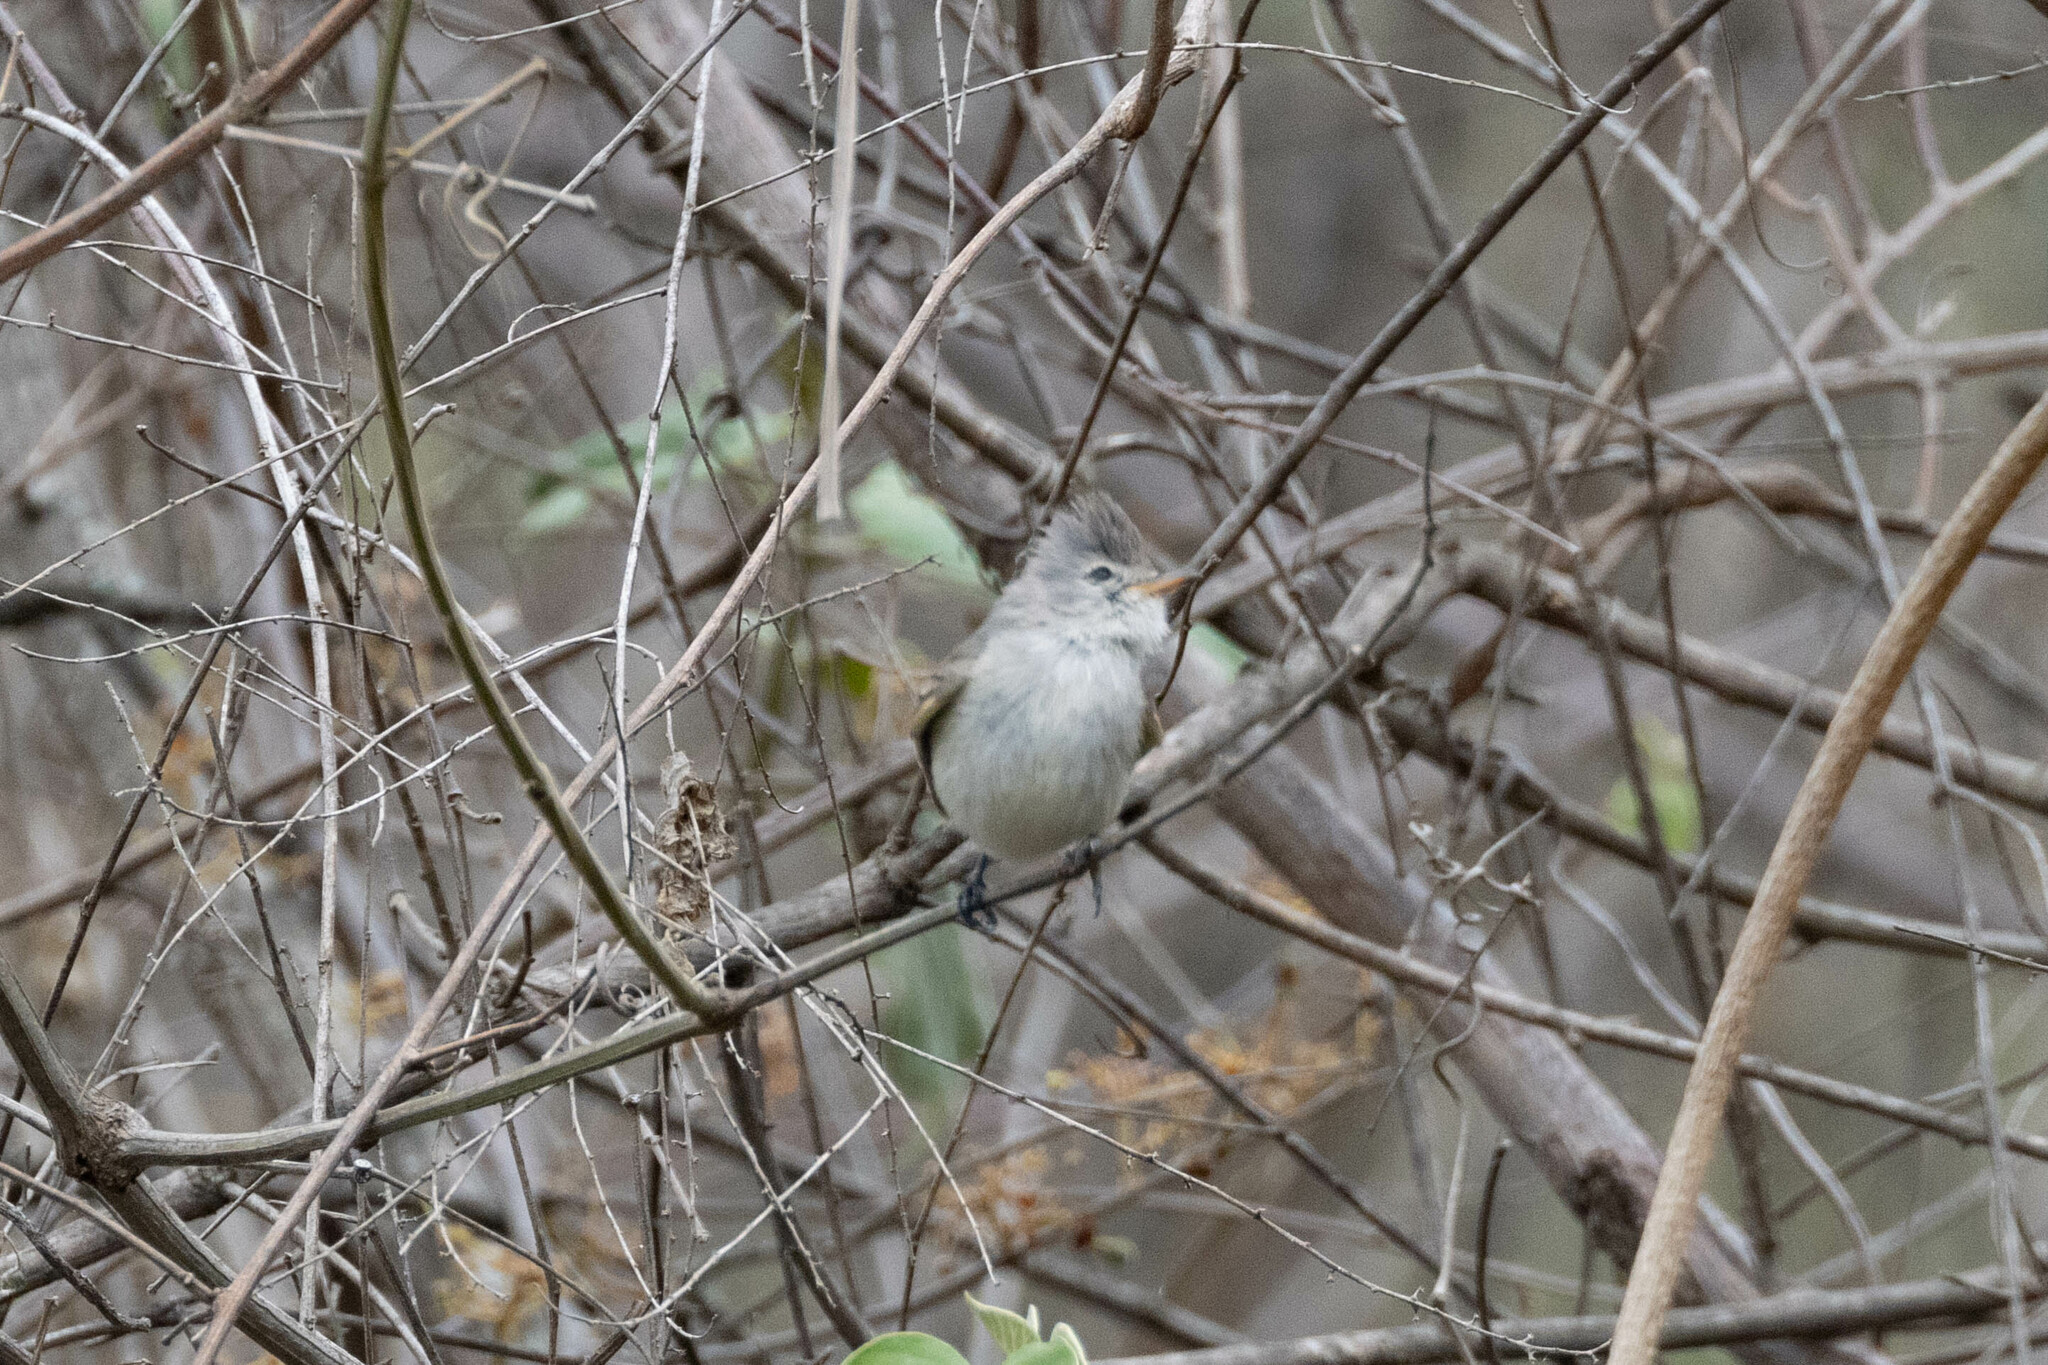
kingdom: Animalia
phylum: Chordata
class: Aves
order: Passeriformes
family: Tyrannidae
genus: Camptostoma
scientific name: Camptostoma obsoletum
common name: Southern beardless-tyrannulet
